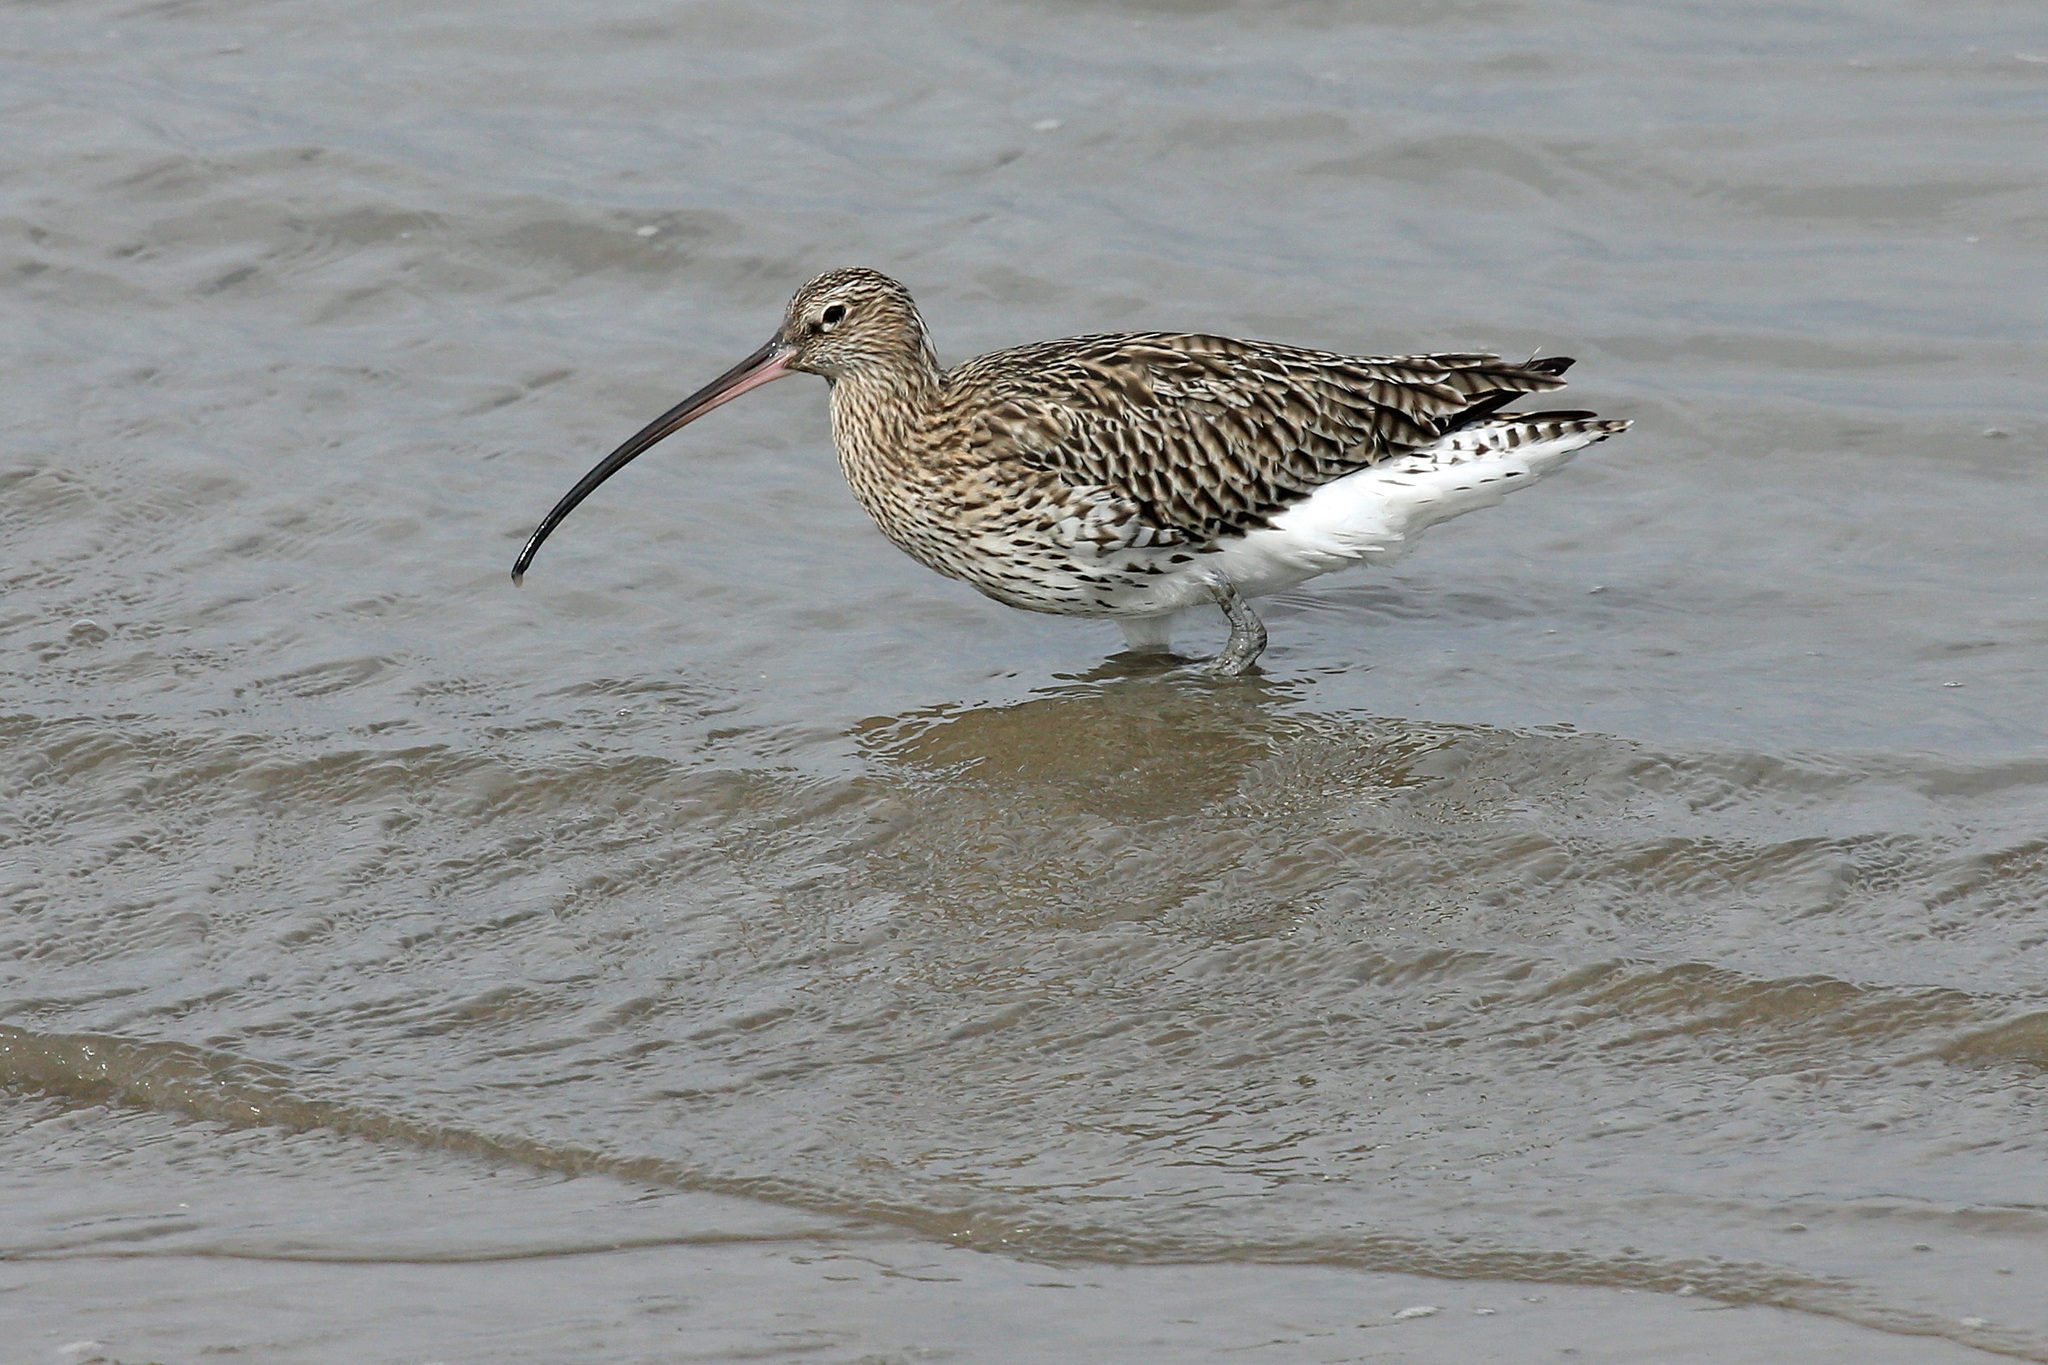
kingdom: Animalia
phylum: Chordata
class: Aves
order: Charadriiformes
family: Scolopacidae
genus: Numenius
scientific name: Numenius arquata
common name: Eurasian curlew
